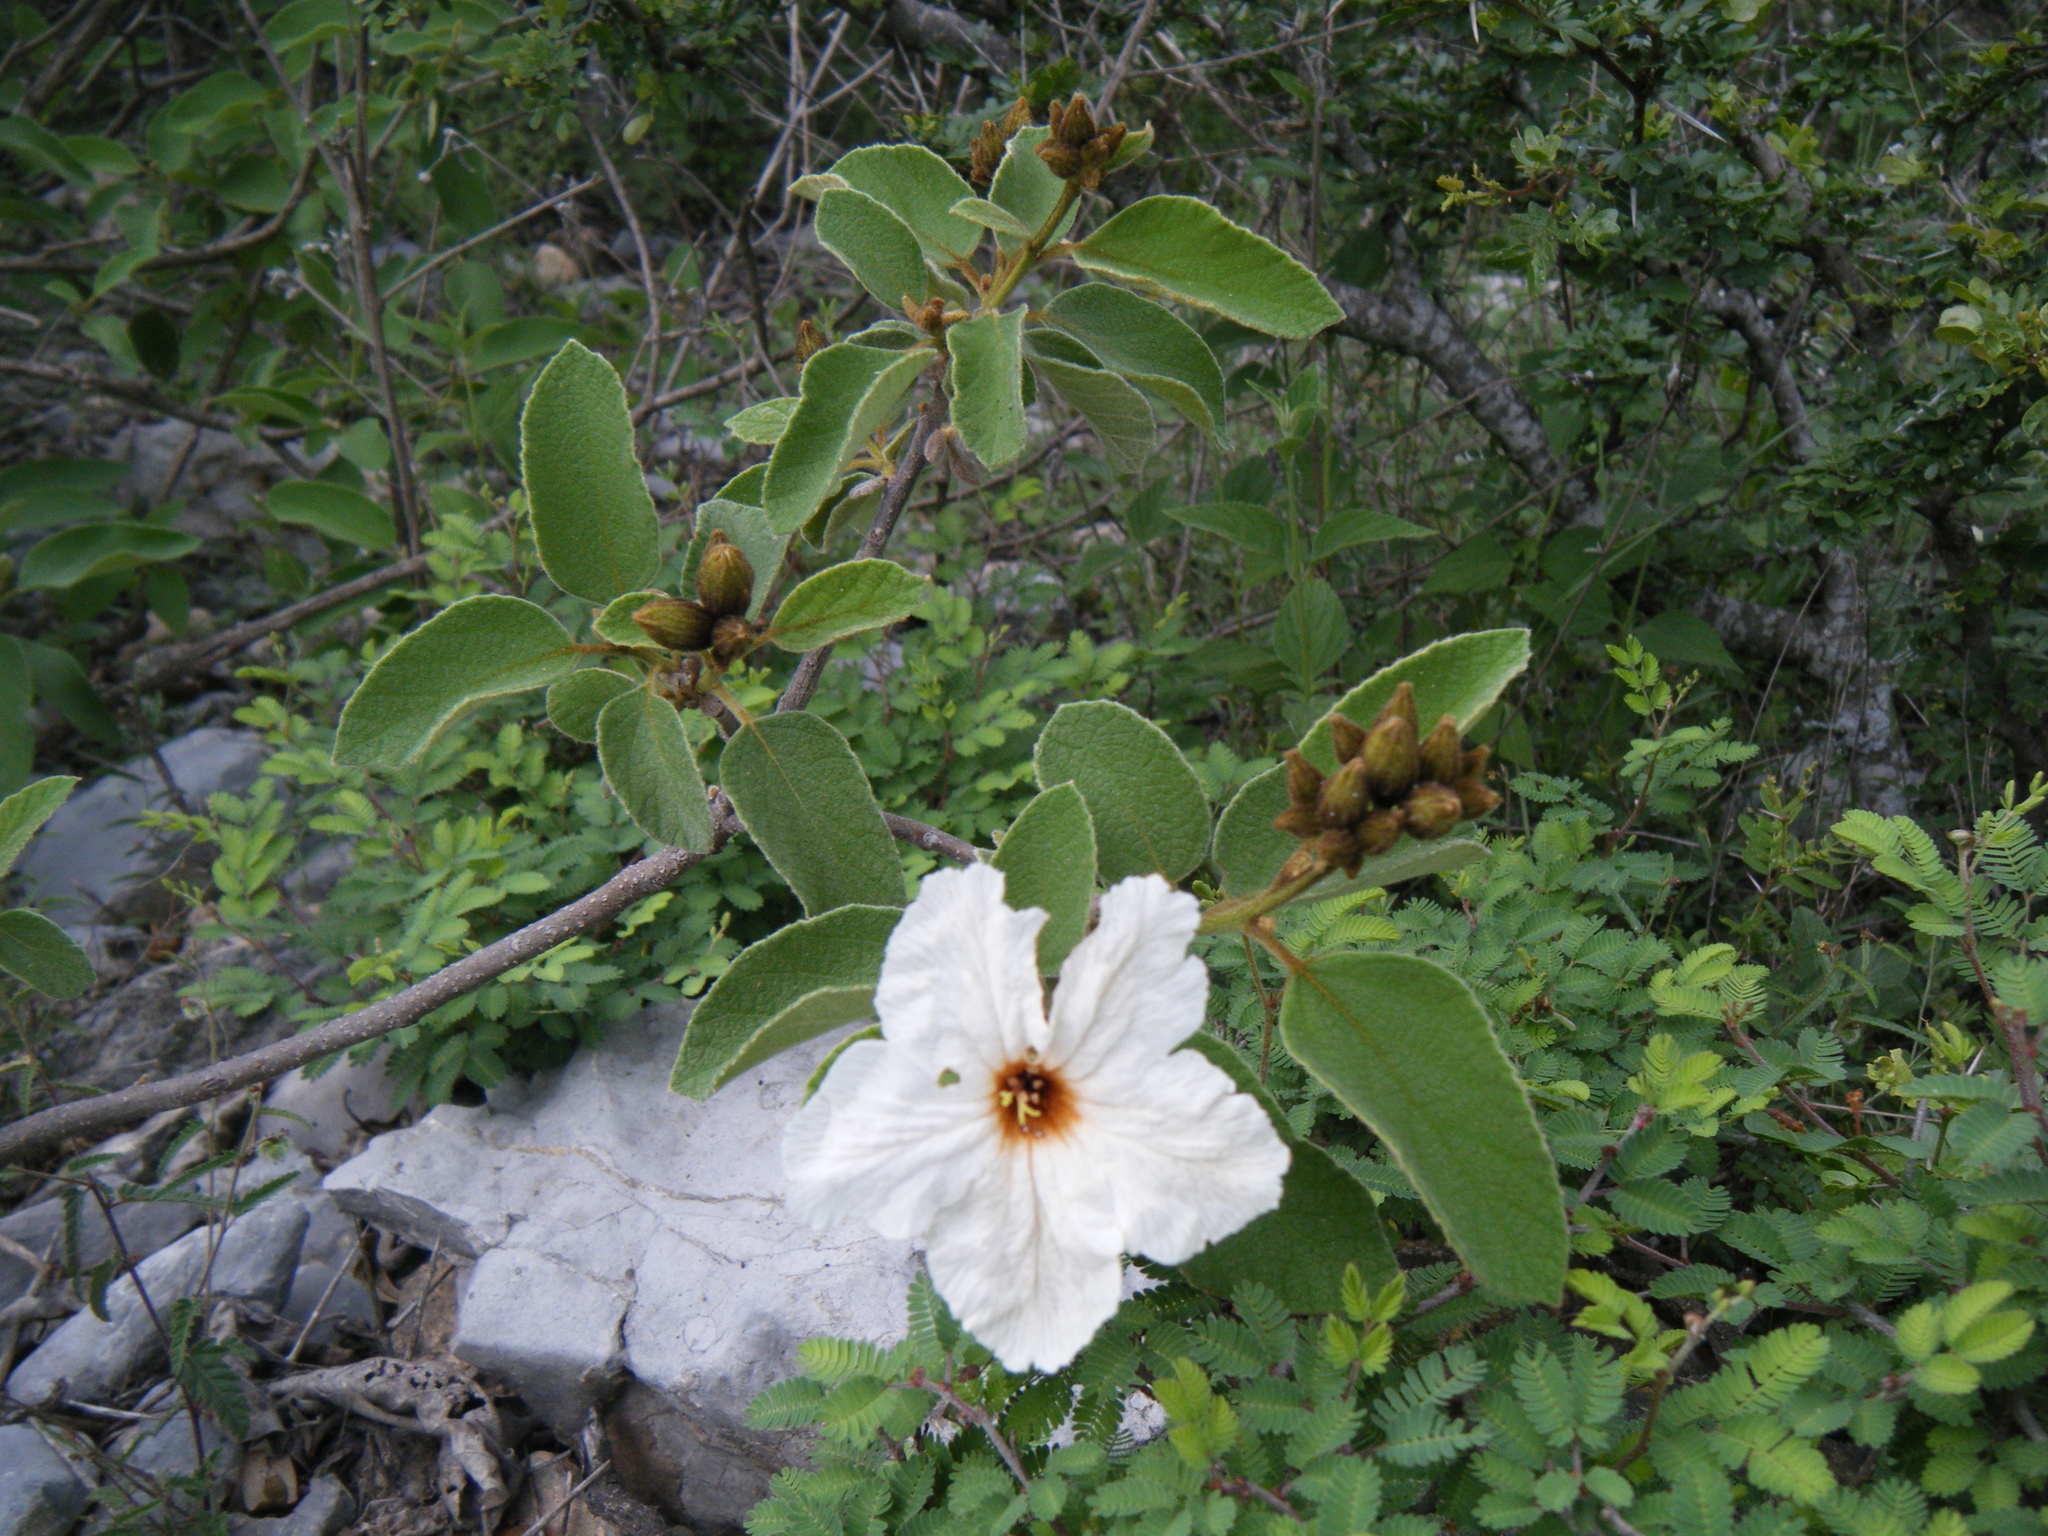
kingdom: Plantae
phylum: Tracheophyta
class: Magnoliopsida
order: Boraginales
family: Cordiaceae
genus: Cordia
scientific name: Cordia boissieri
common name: Mexican-olive
